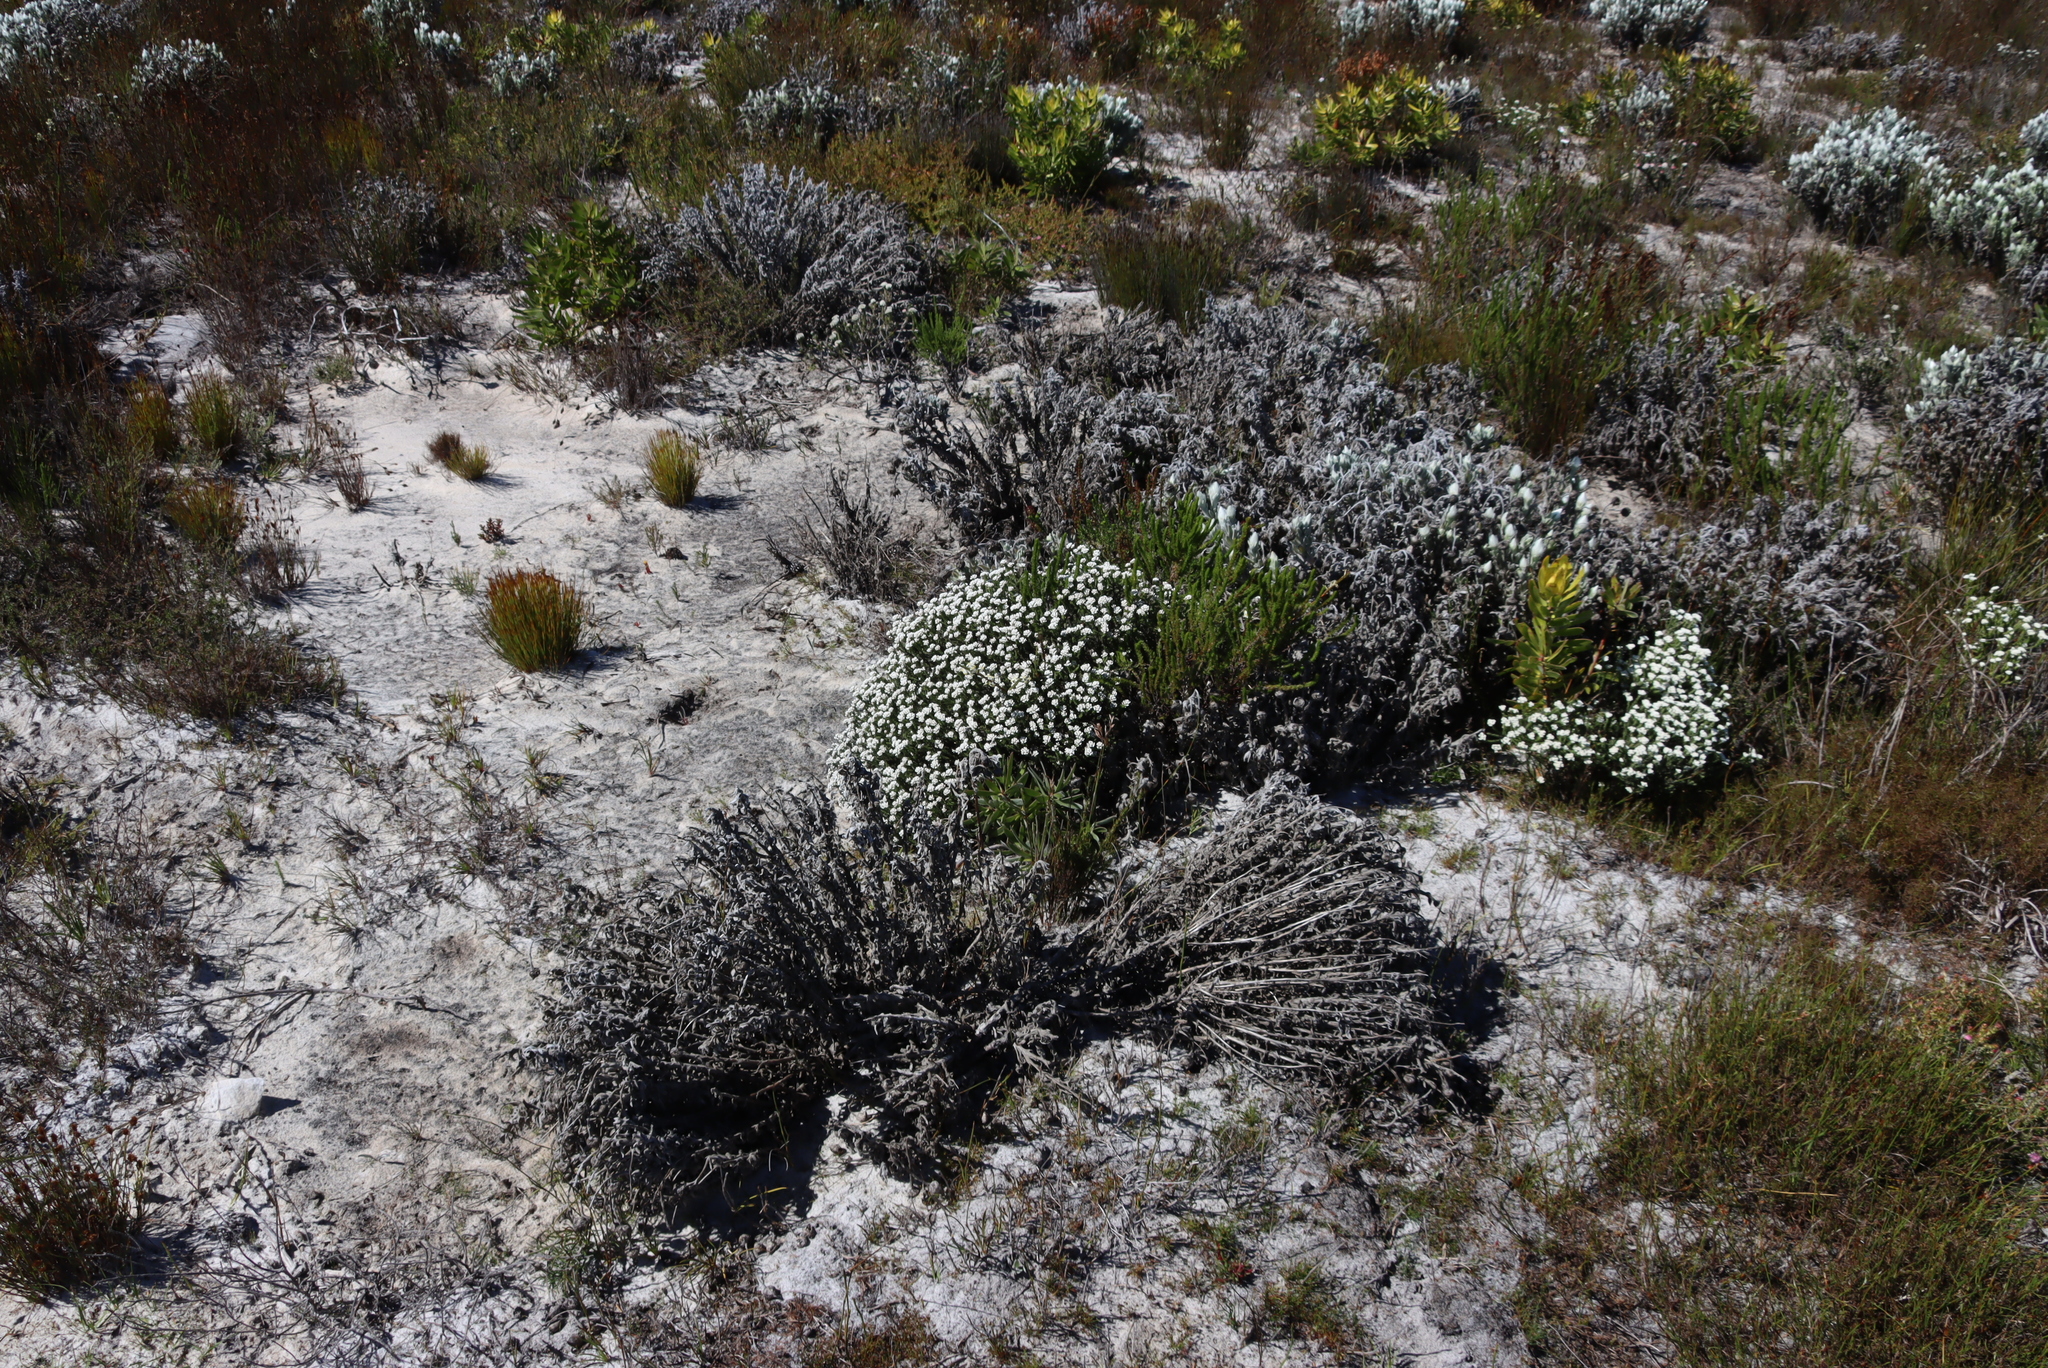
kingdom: Plantae
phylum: Tracheophyta
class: Magnoliopsida
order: Asterales
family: Asteraceae
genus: Syncarpha
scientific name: Syncarpha vestita
